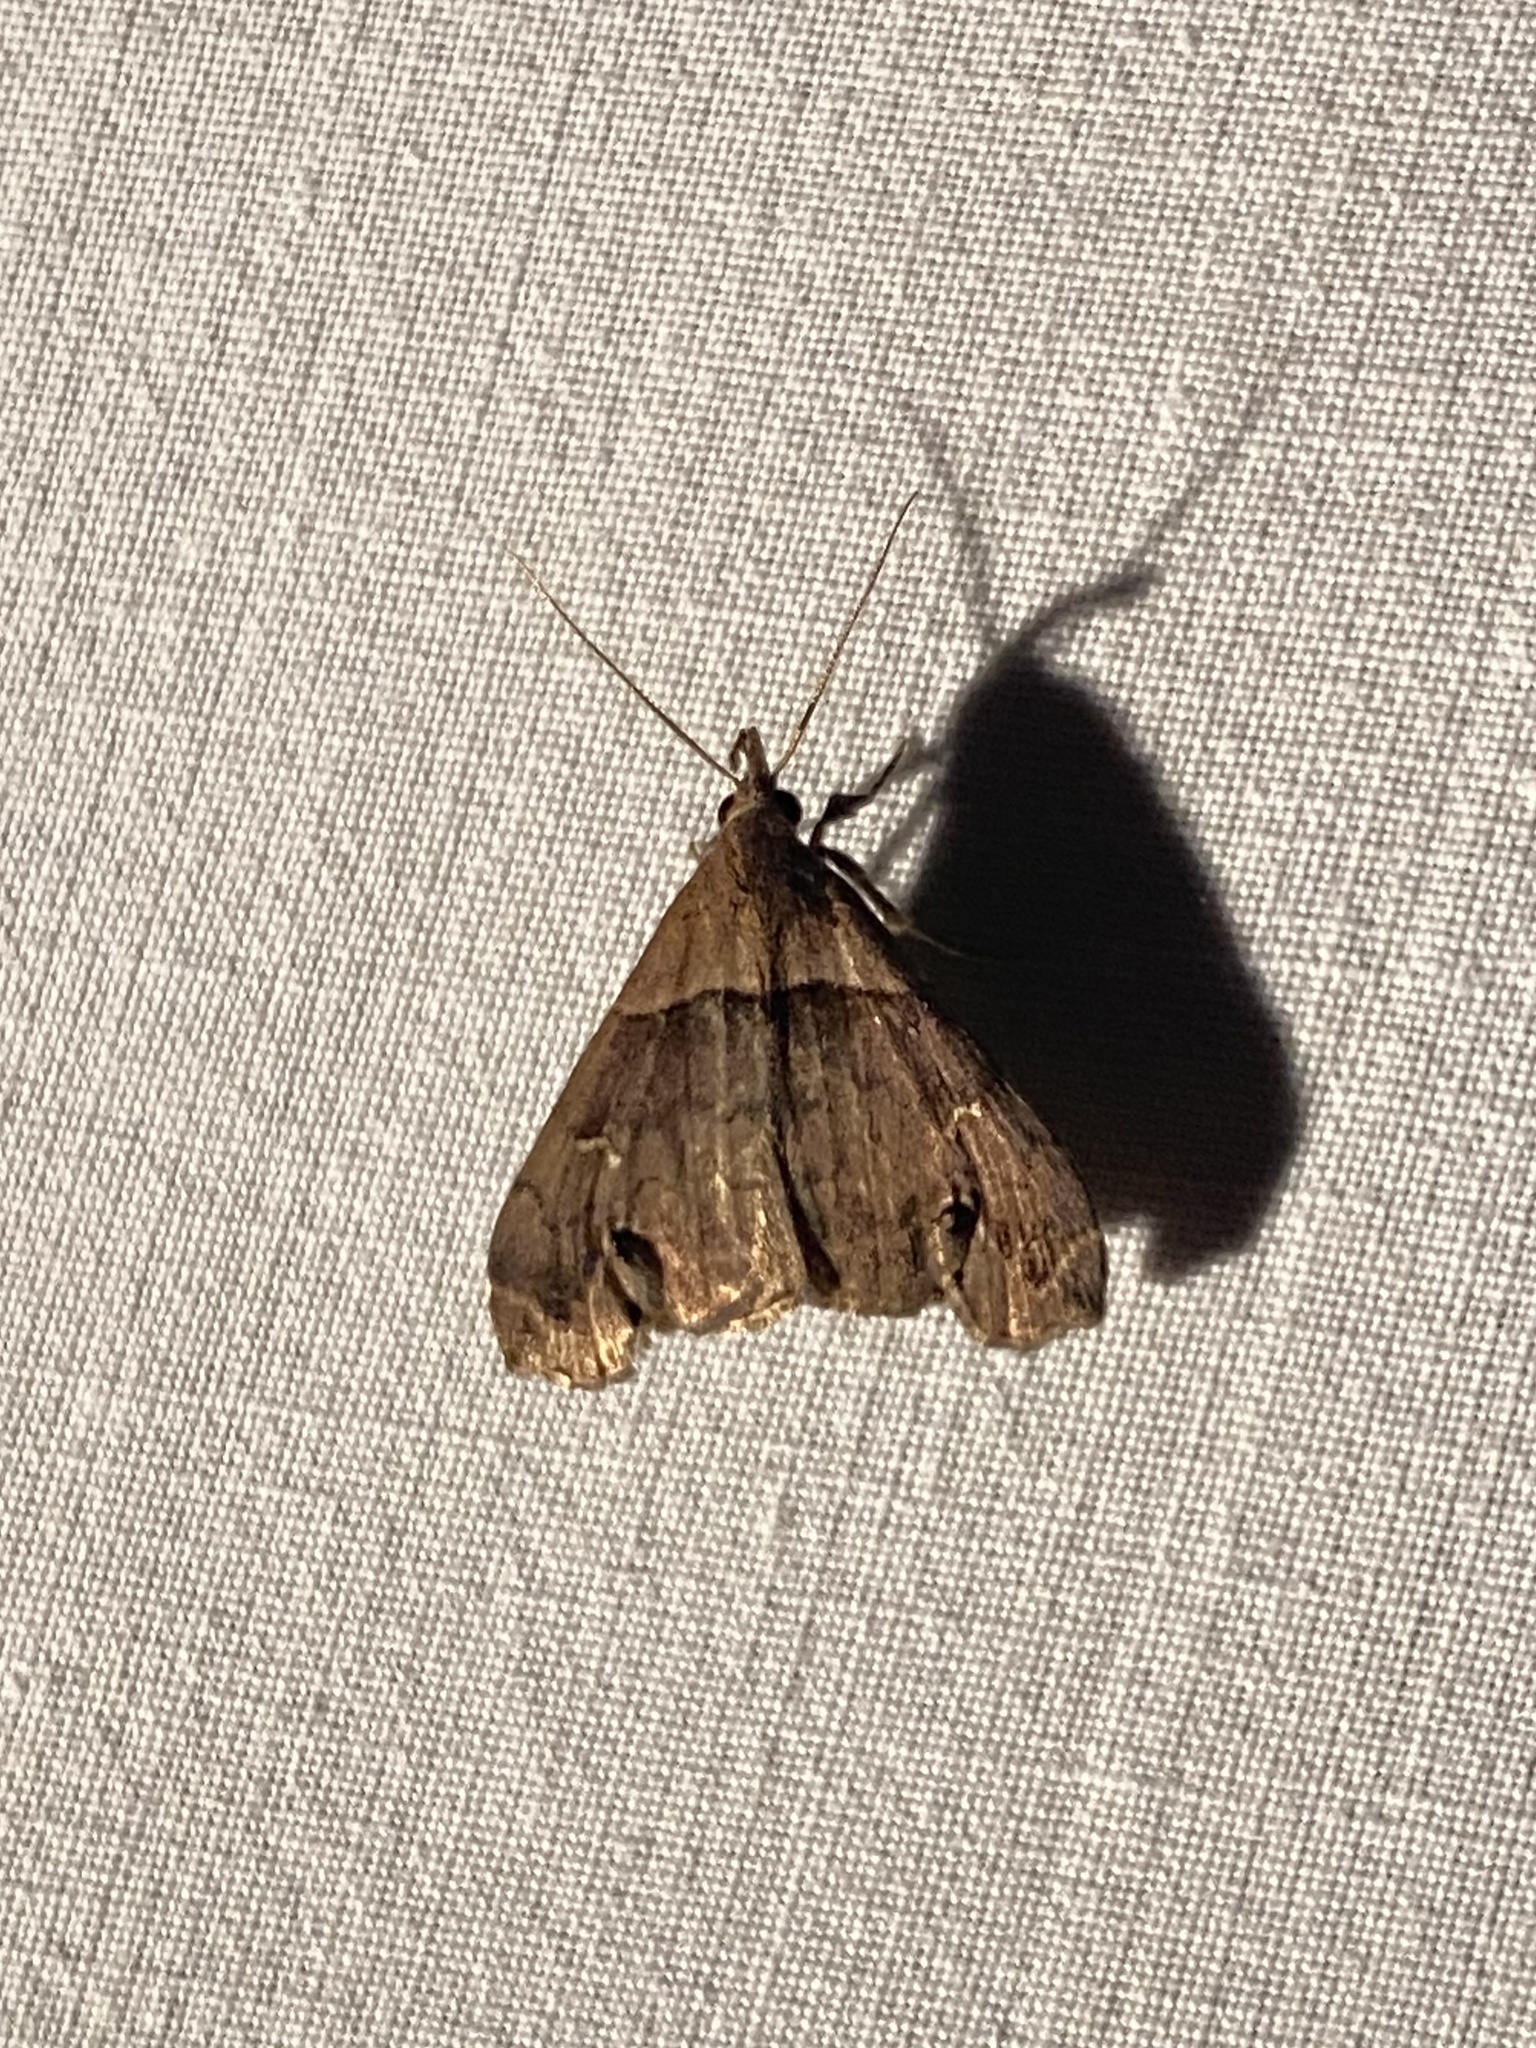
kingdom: Animalia
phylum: Arthropoda
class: Insecta
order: Lepidoptera
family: Erebidae
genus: Lascoria
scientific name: Lascoria ambigualis
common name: Ambiguous moth
